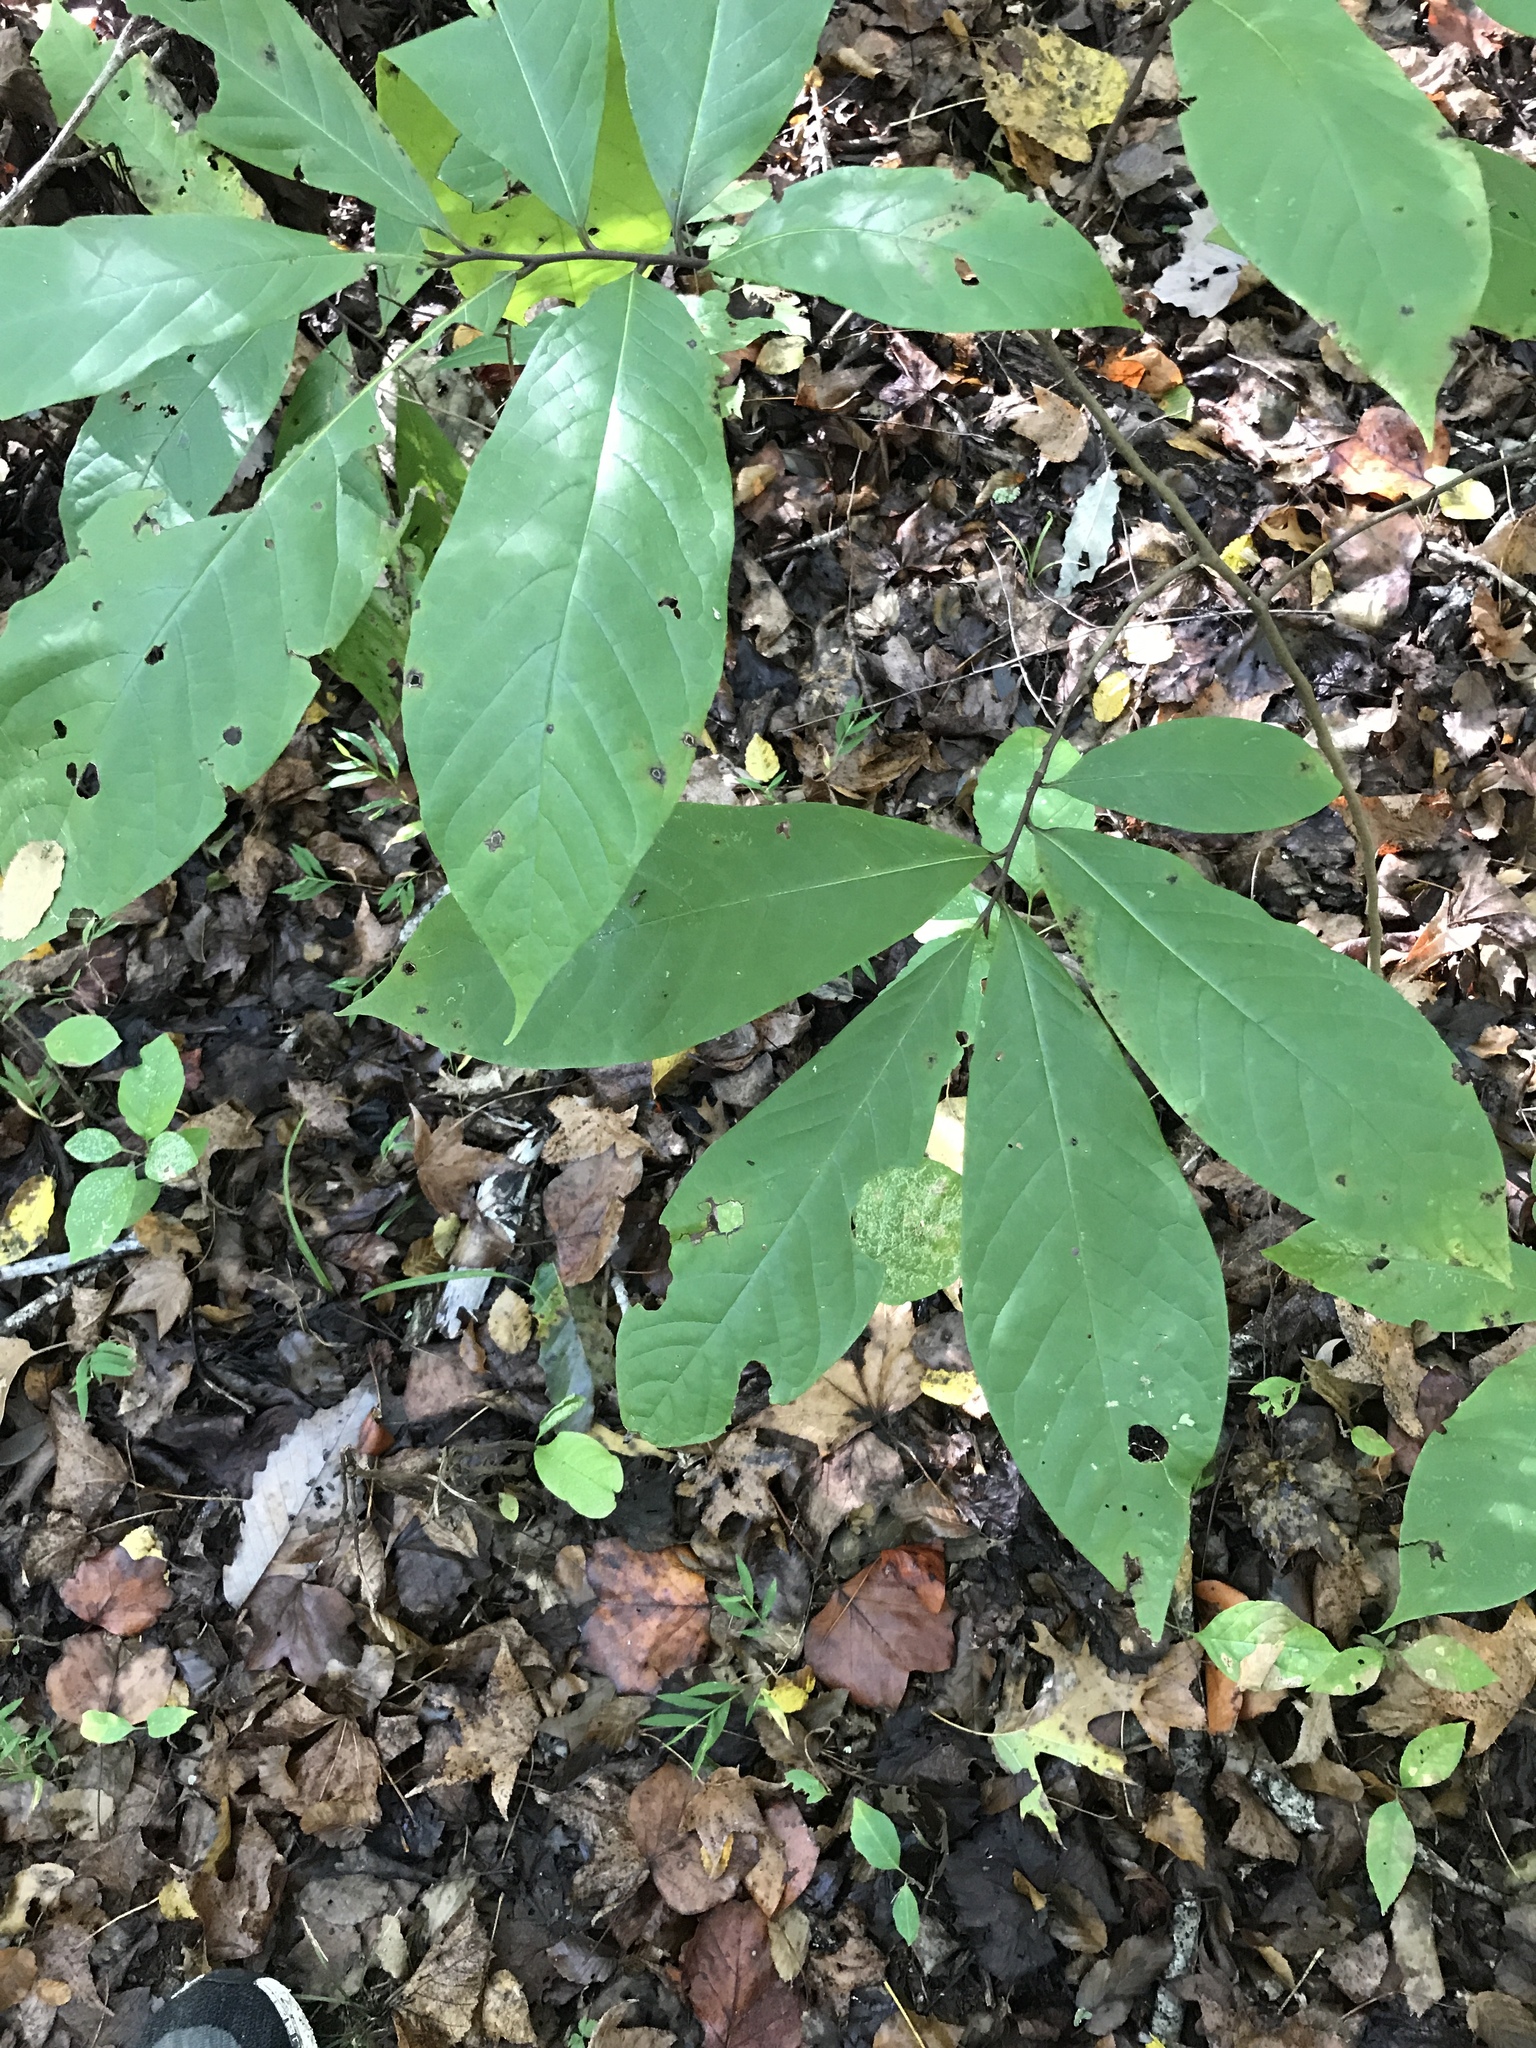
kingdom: Plantae
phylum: Tracheophyta
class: Magnoliopsida
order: Magnoliales
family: Annonaceae
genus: Asimina
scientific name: Asimina triloba
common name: Dog-banana
